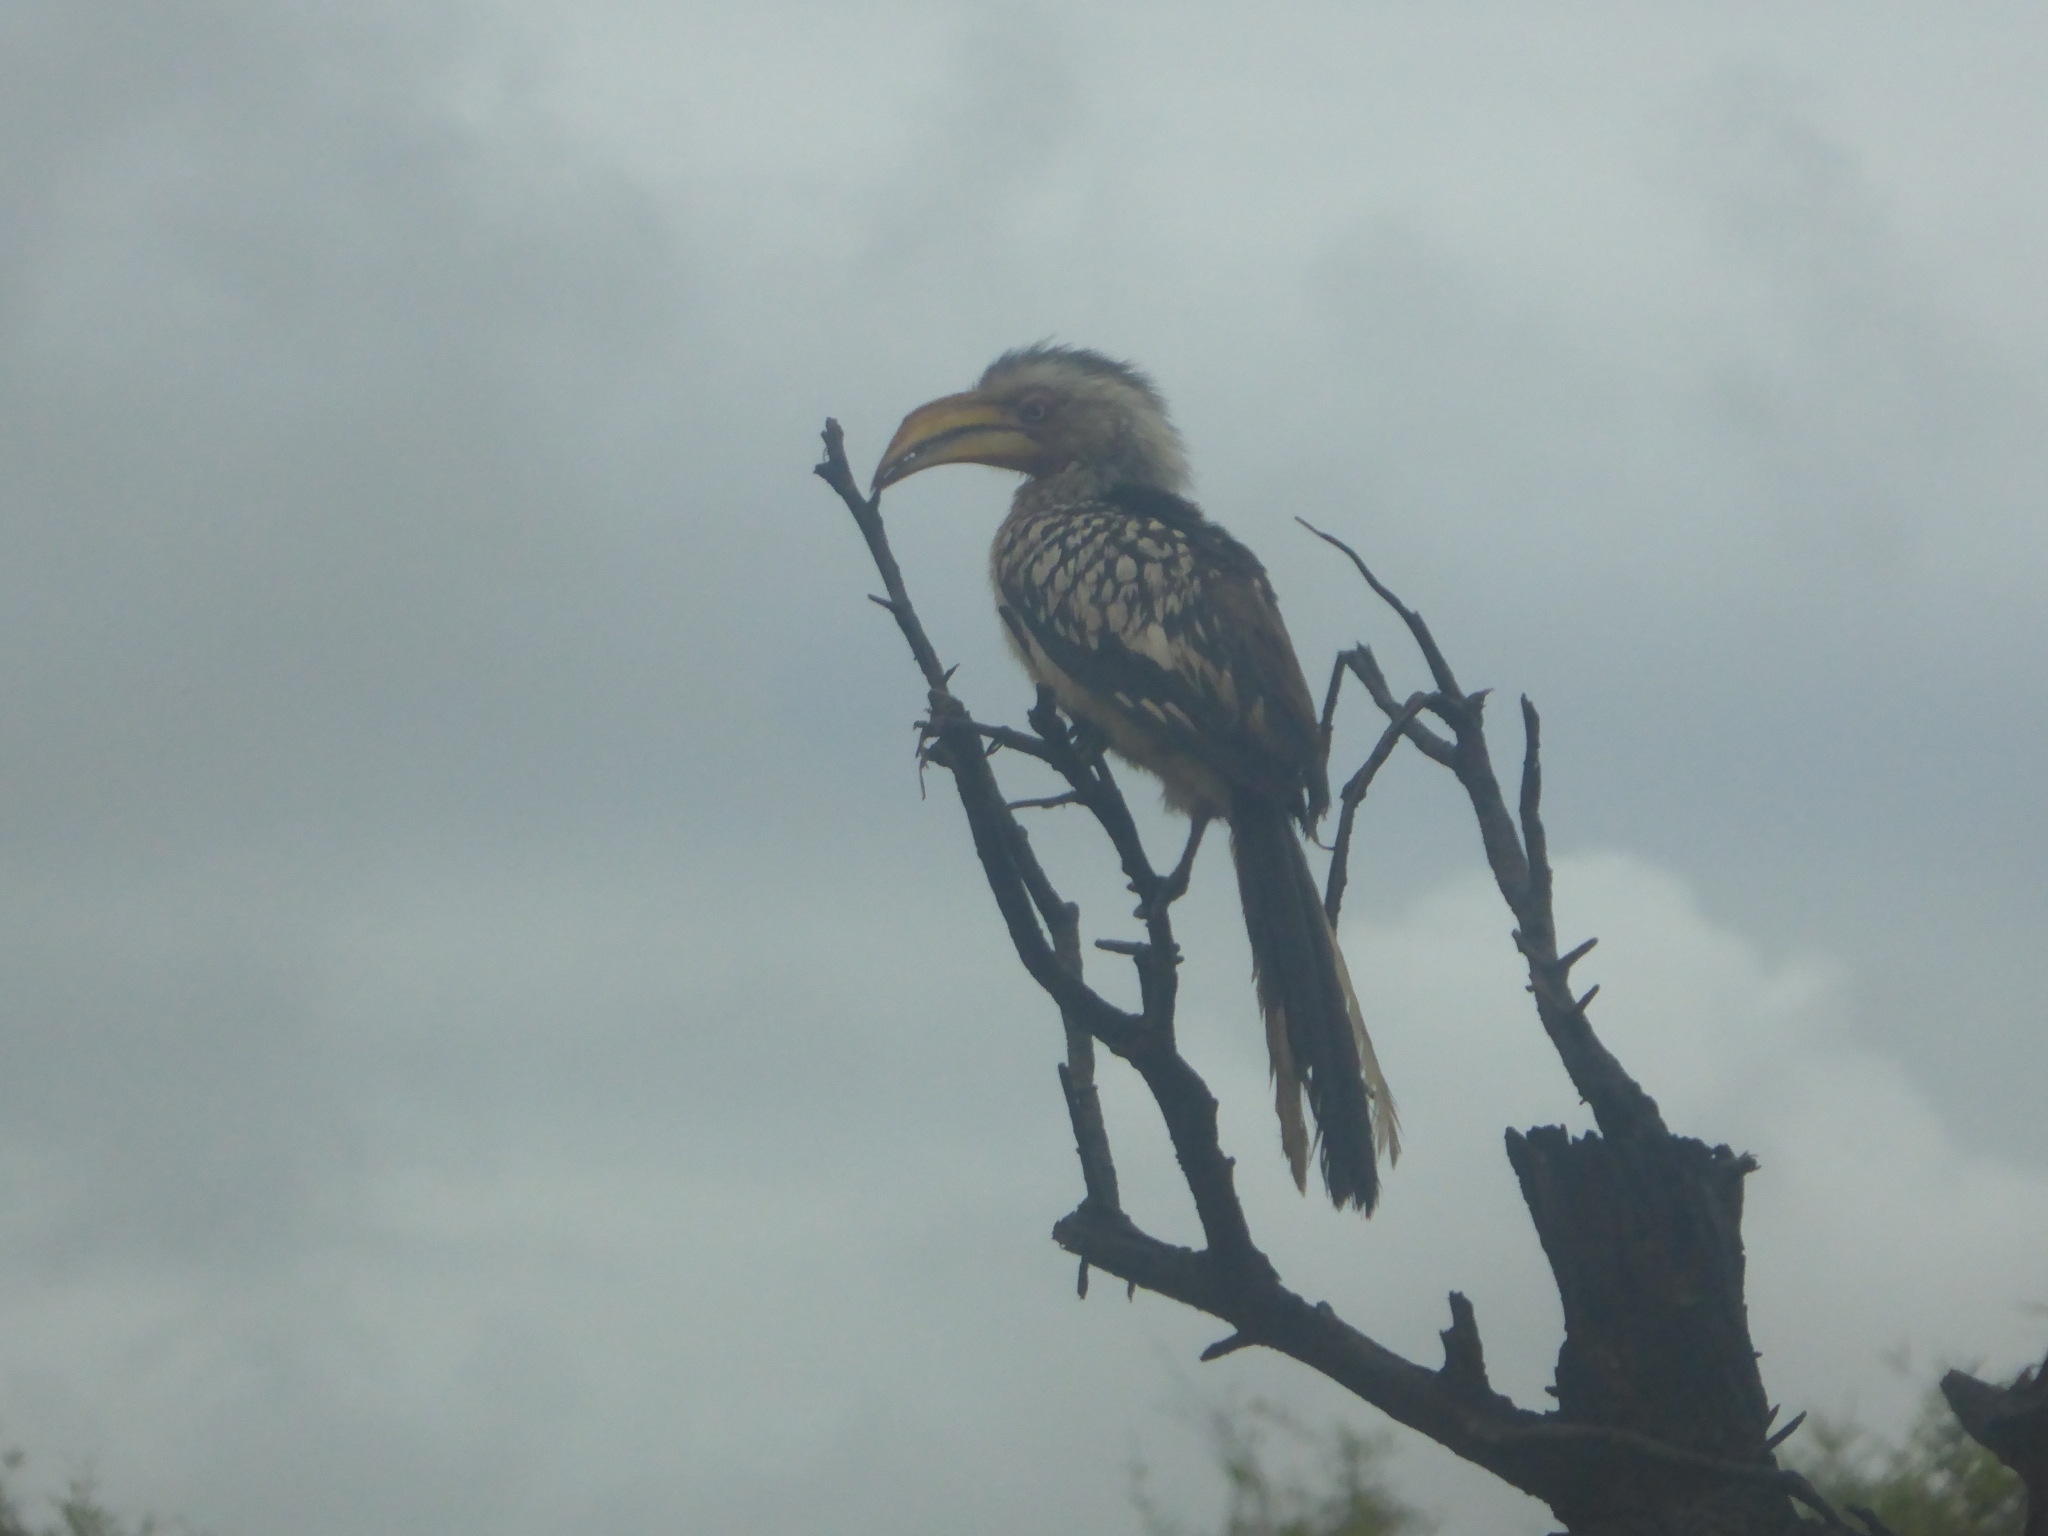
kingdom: Animalia
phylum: Chordata
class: Aves
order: Bucerotiformes
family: Bucerotidae
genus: Tockus
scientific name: Tockus leucomelas
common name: Southern yellow-billed hornbill
